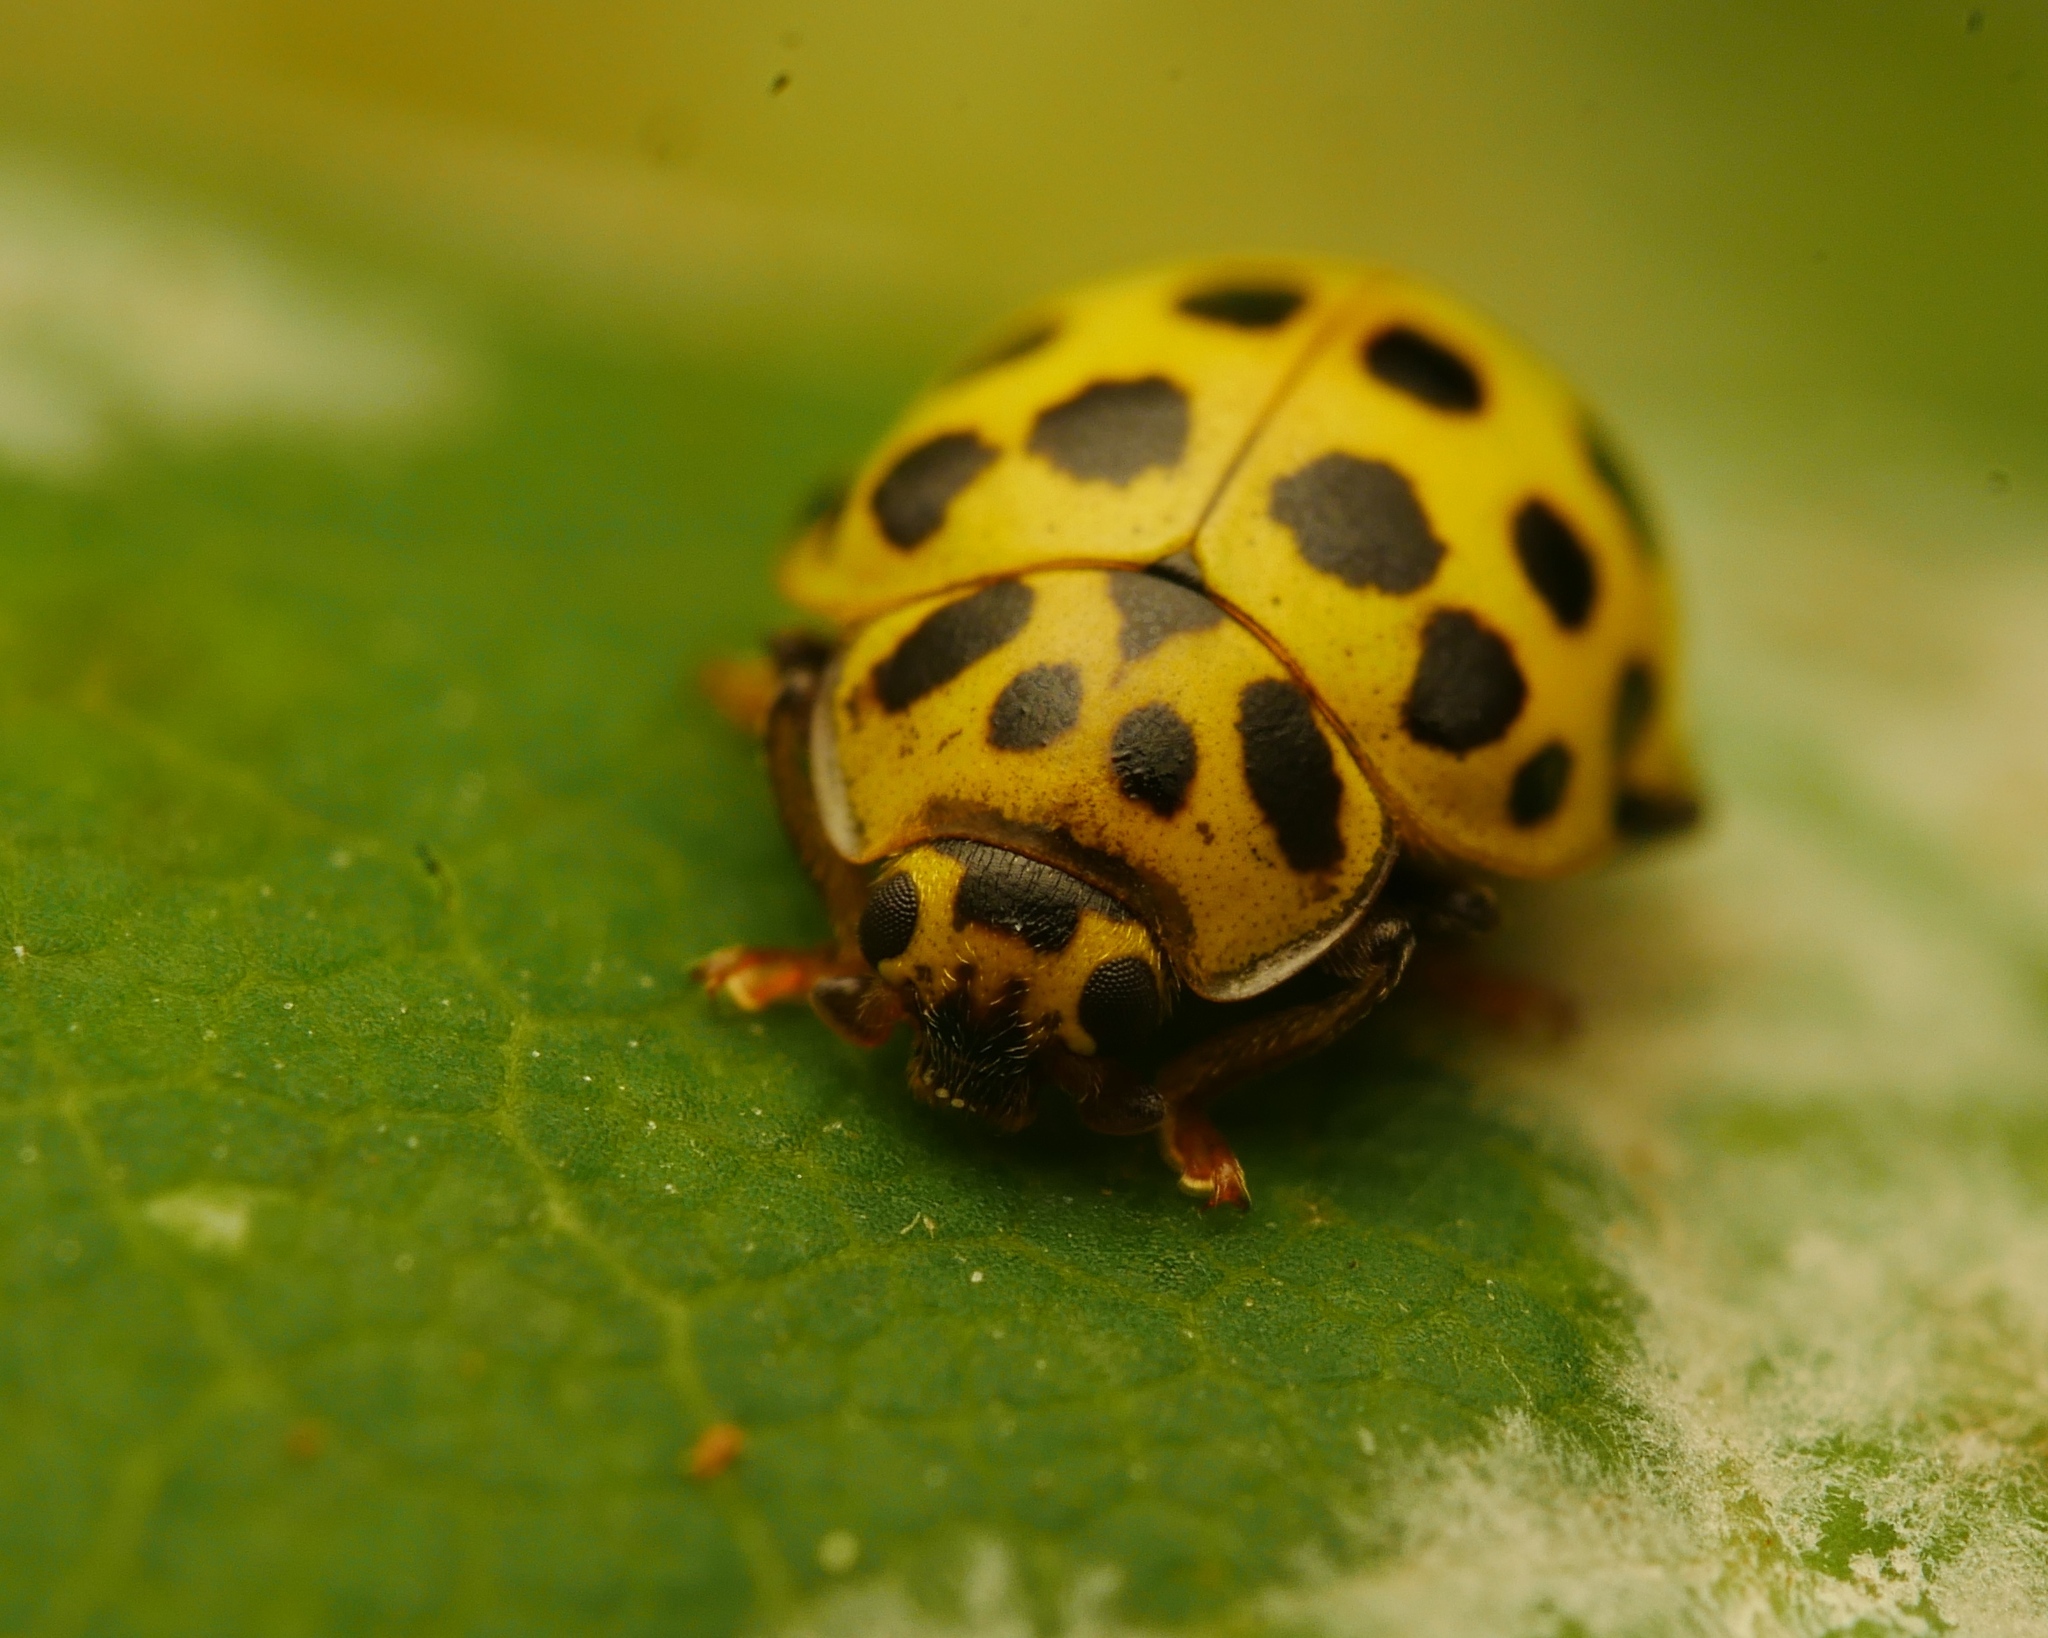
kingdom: Animalia
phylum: Arthropoda
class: Insecta
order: Coleoptera
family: Coccinellidae
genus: Psyllobora
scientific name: Psyllobora vigintiduopunctata
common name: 22-spot ladybird
